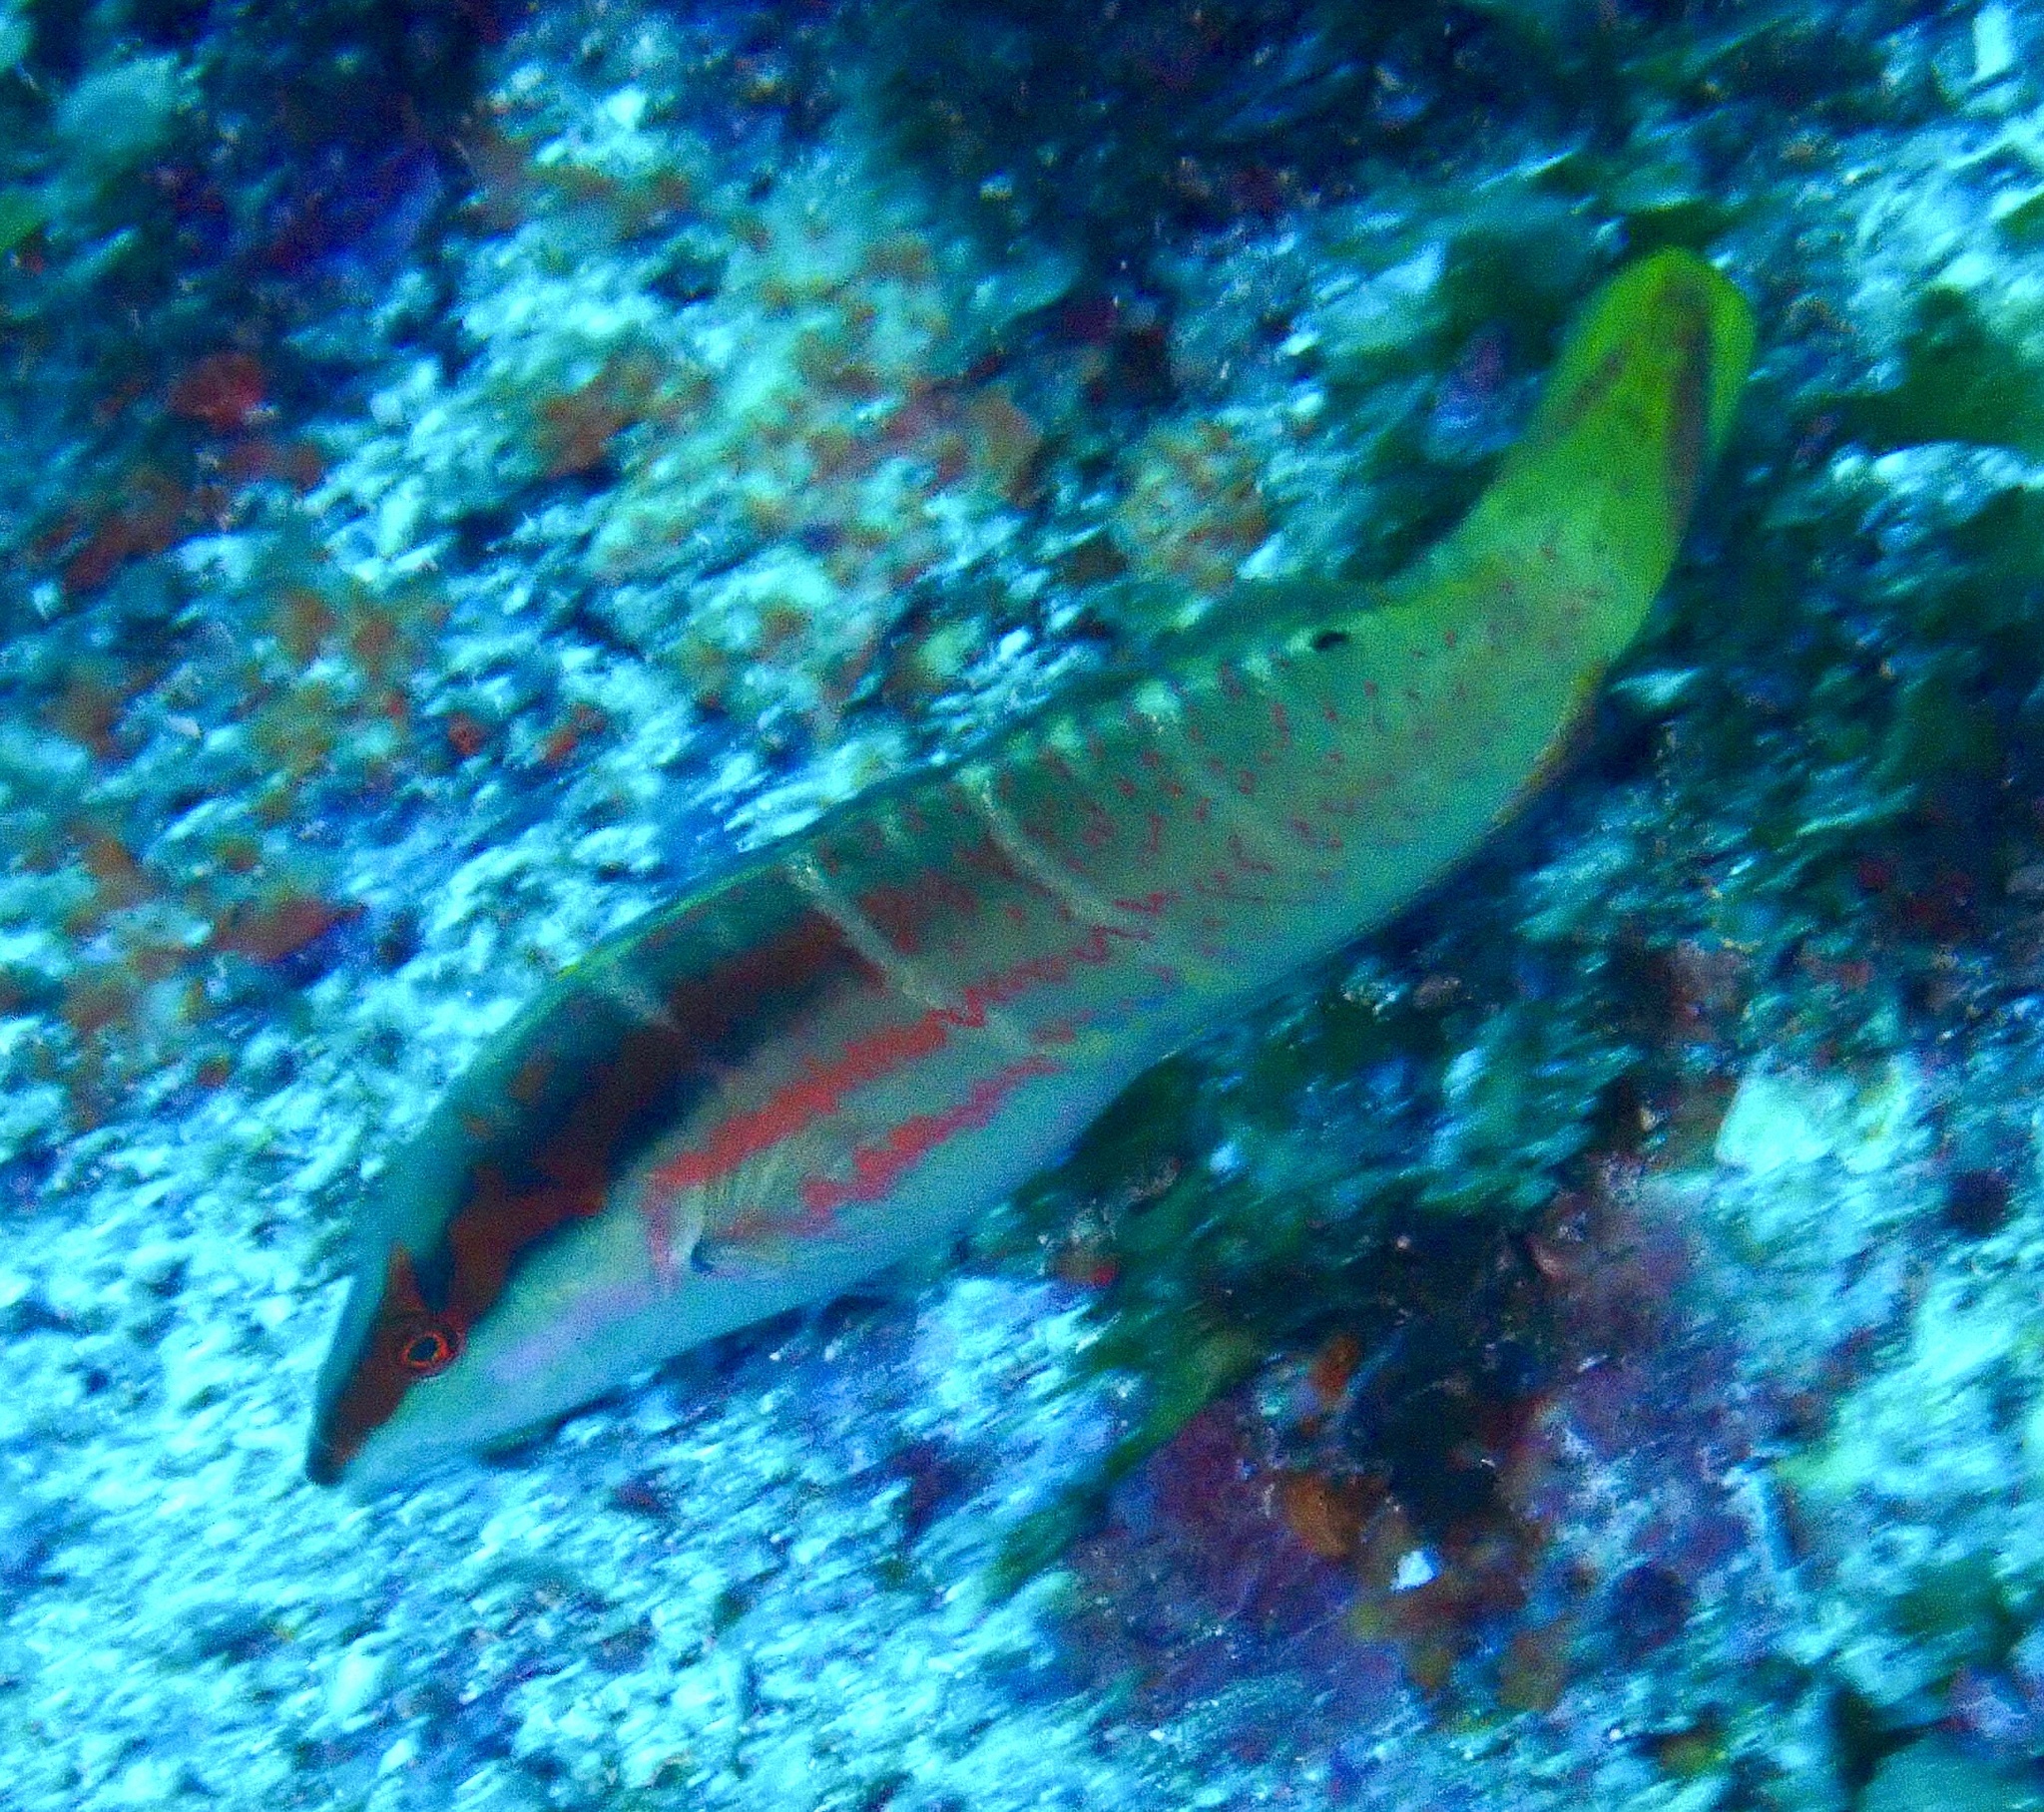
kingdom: Animalia
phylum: Chordata
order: Perciformes
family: Labridae
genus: Coris
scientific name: Coris dorsomacula
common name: Pale-barred coris
